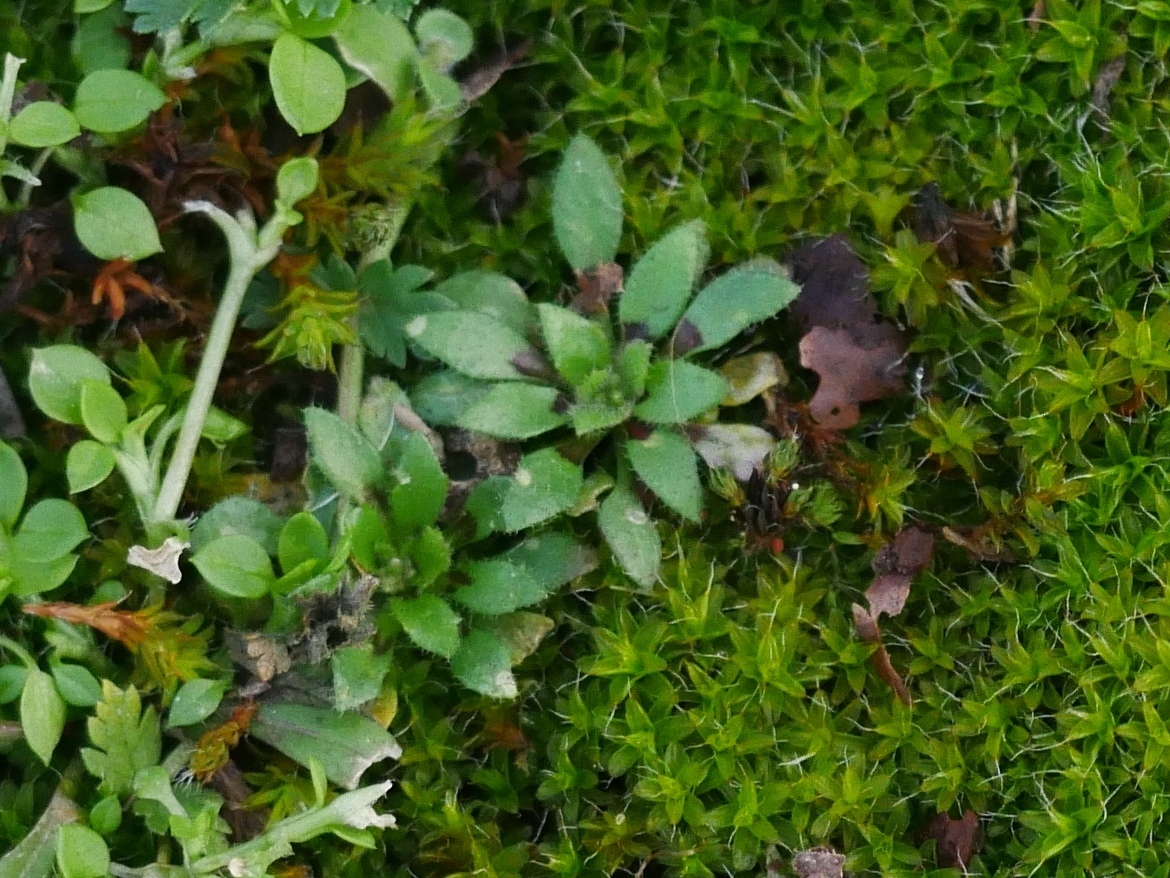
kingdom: Plantae
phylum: Tracheophyta
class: Magnoliopsida
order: Brassicales
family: Brassicaceae
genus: Draba
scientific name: Draba verna
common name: Spring draba
